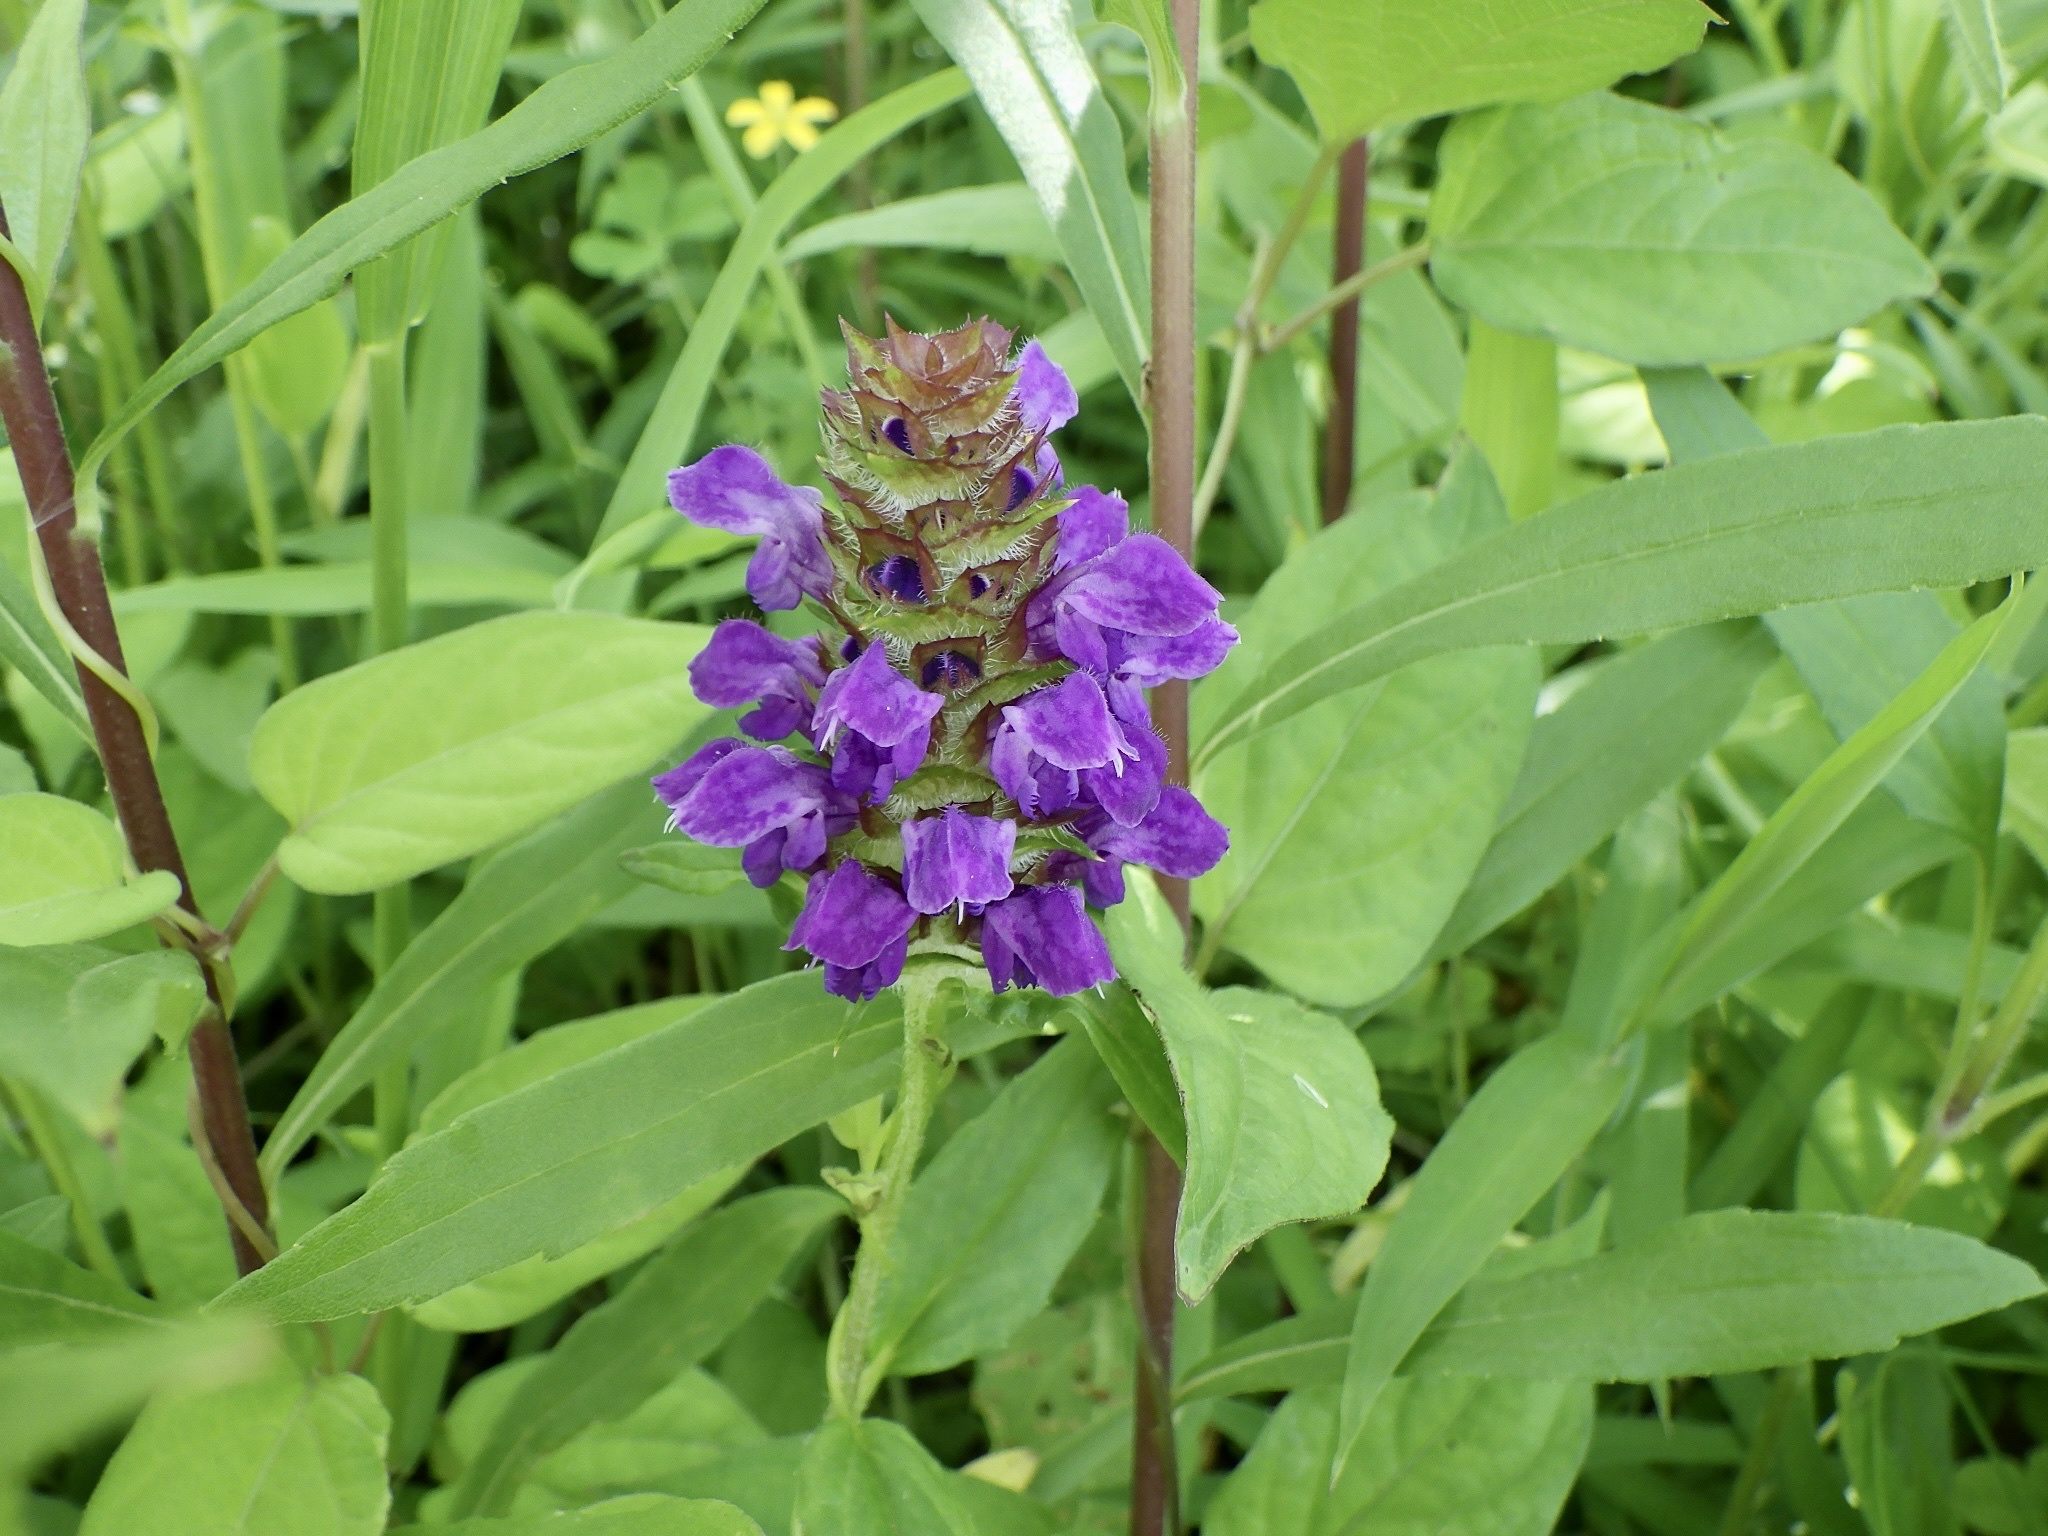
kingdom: Plantae
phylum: Tracheophyta
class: Magnoliopsida
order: Lamiales
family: Lamiaceae
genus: Prunella
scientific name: Prunella vulgaris
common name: Heal-all
